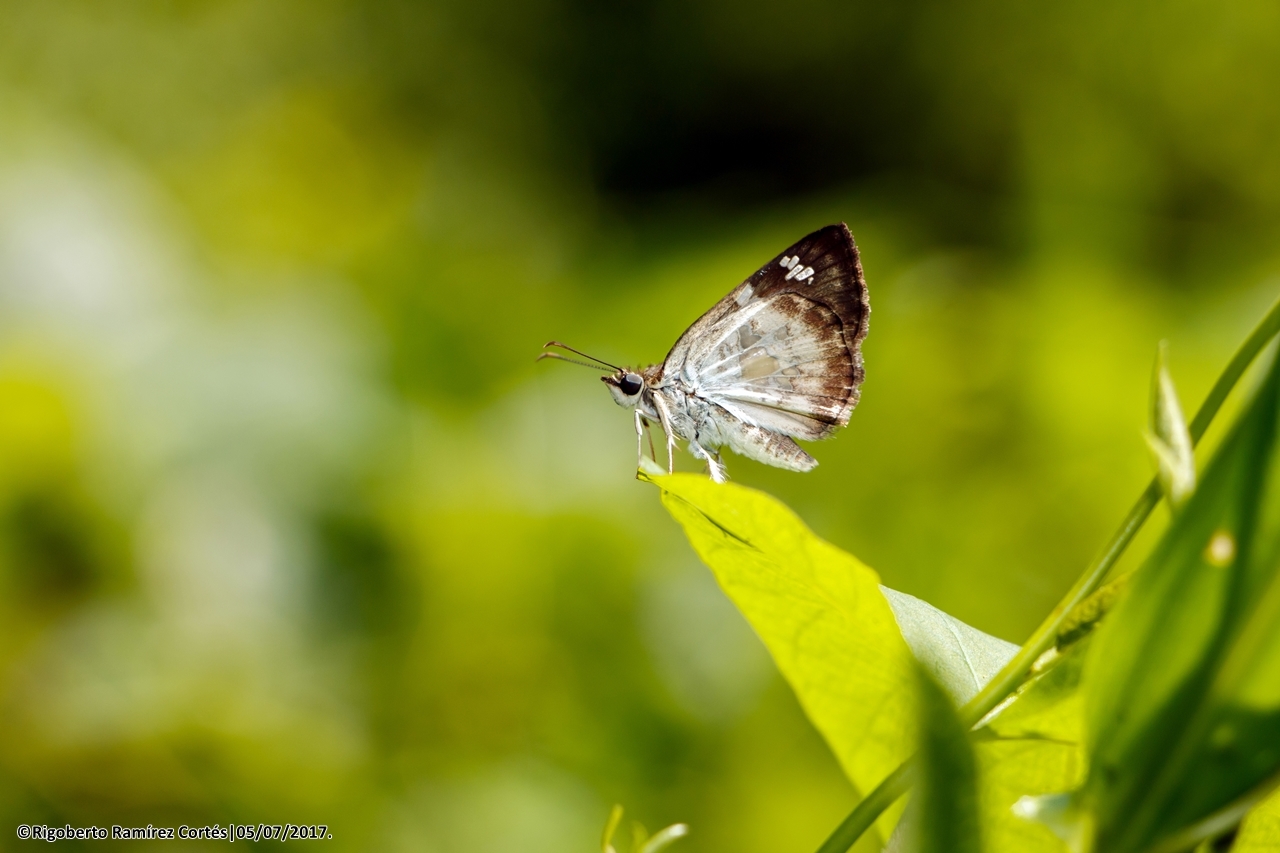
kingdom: Animalia
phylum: Arthropoda
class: Insecta
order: Lepidoptera
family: Hesperiidae
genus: Xenophanes
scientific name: Xenophanes tryxus
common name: Glassy-winged skipper
